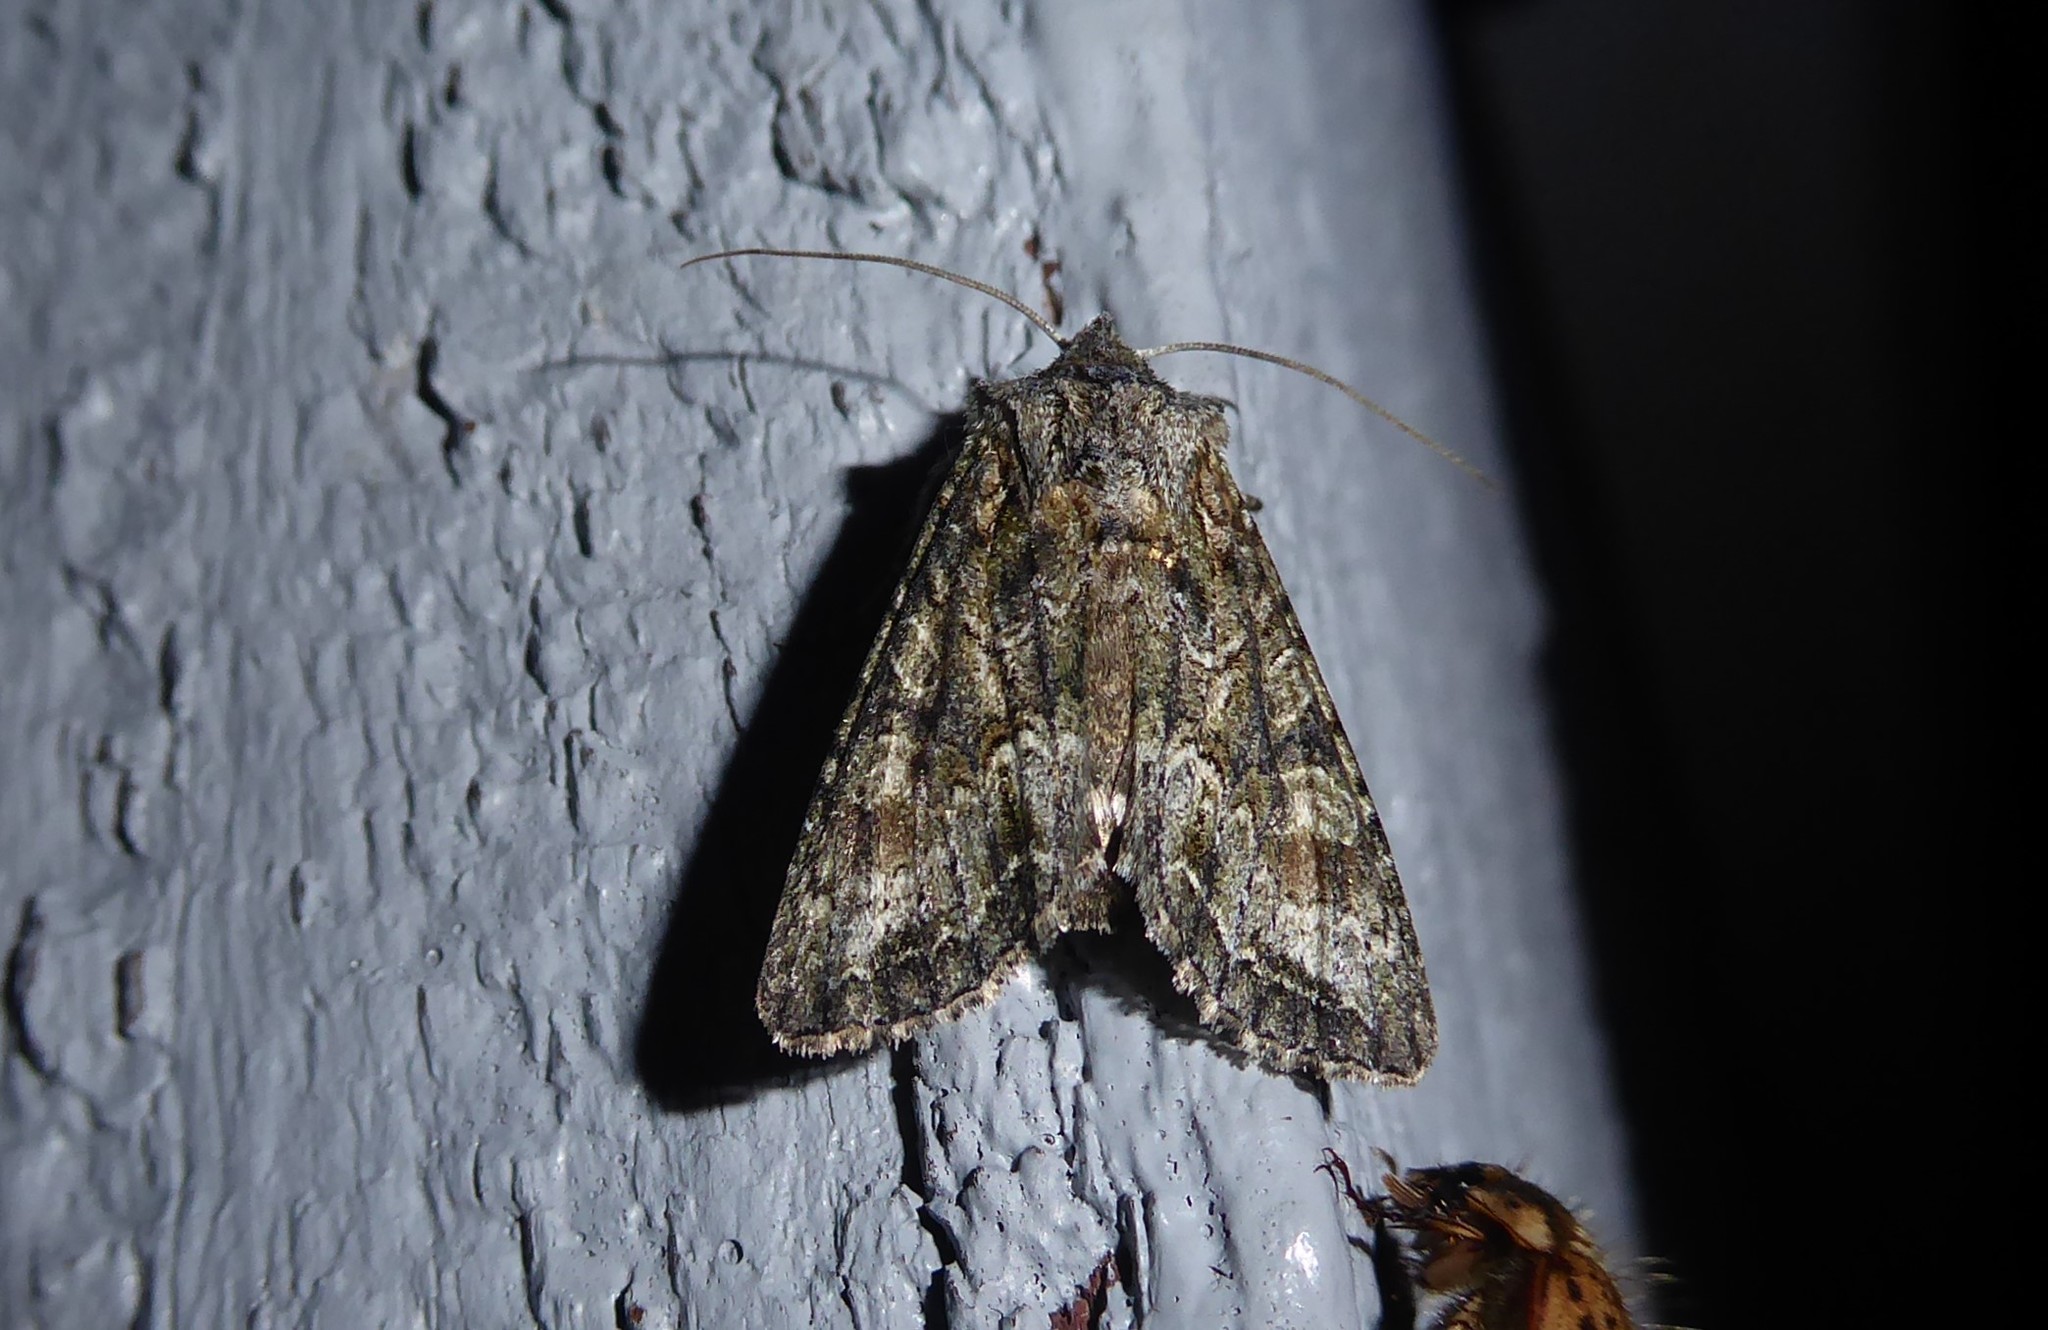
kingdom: Animalia
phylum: Arthropoda
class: Insecta
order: Lepidoptera
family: Noctuidae
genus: Ichneutica
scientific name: Ichneutica mutans
